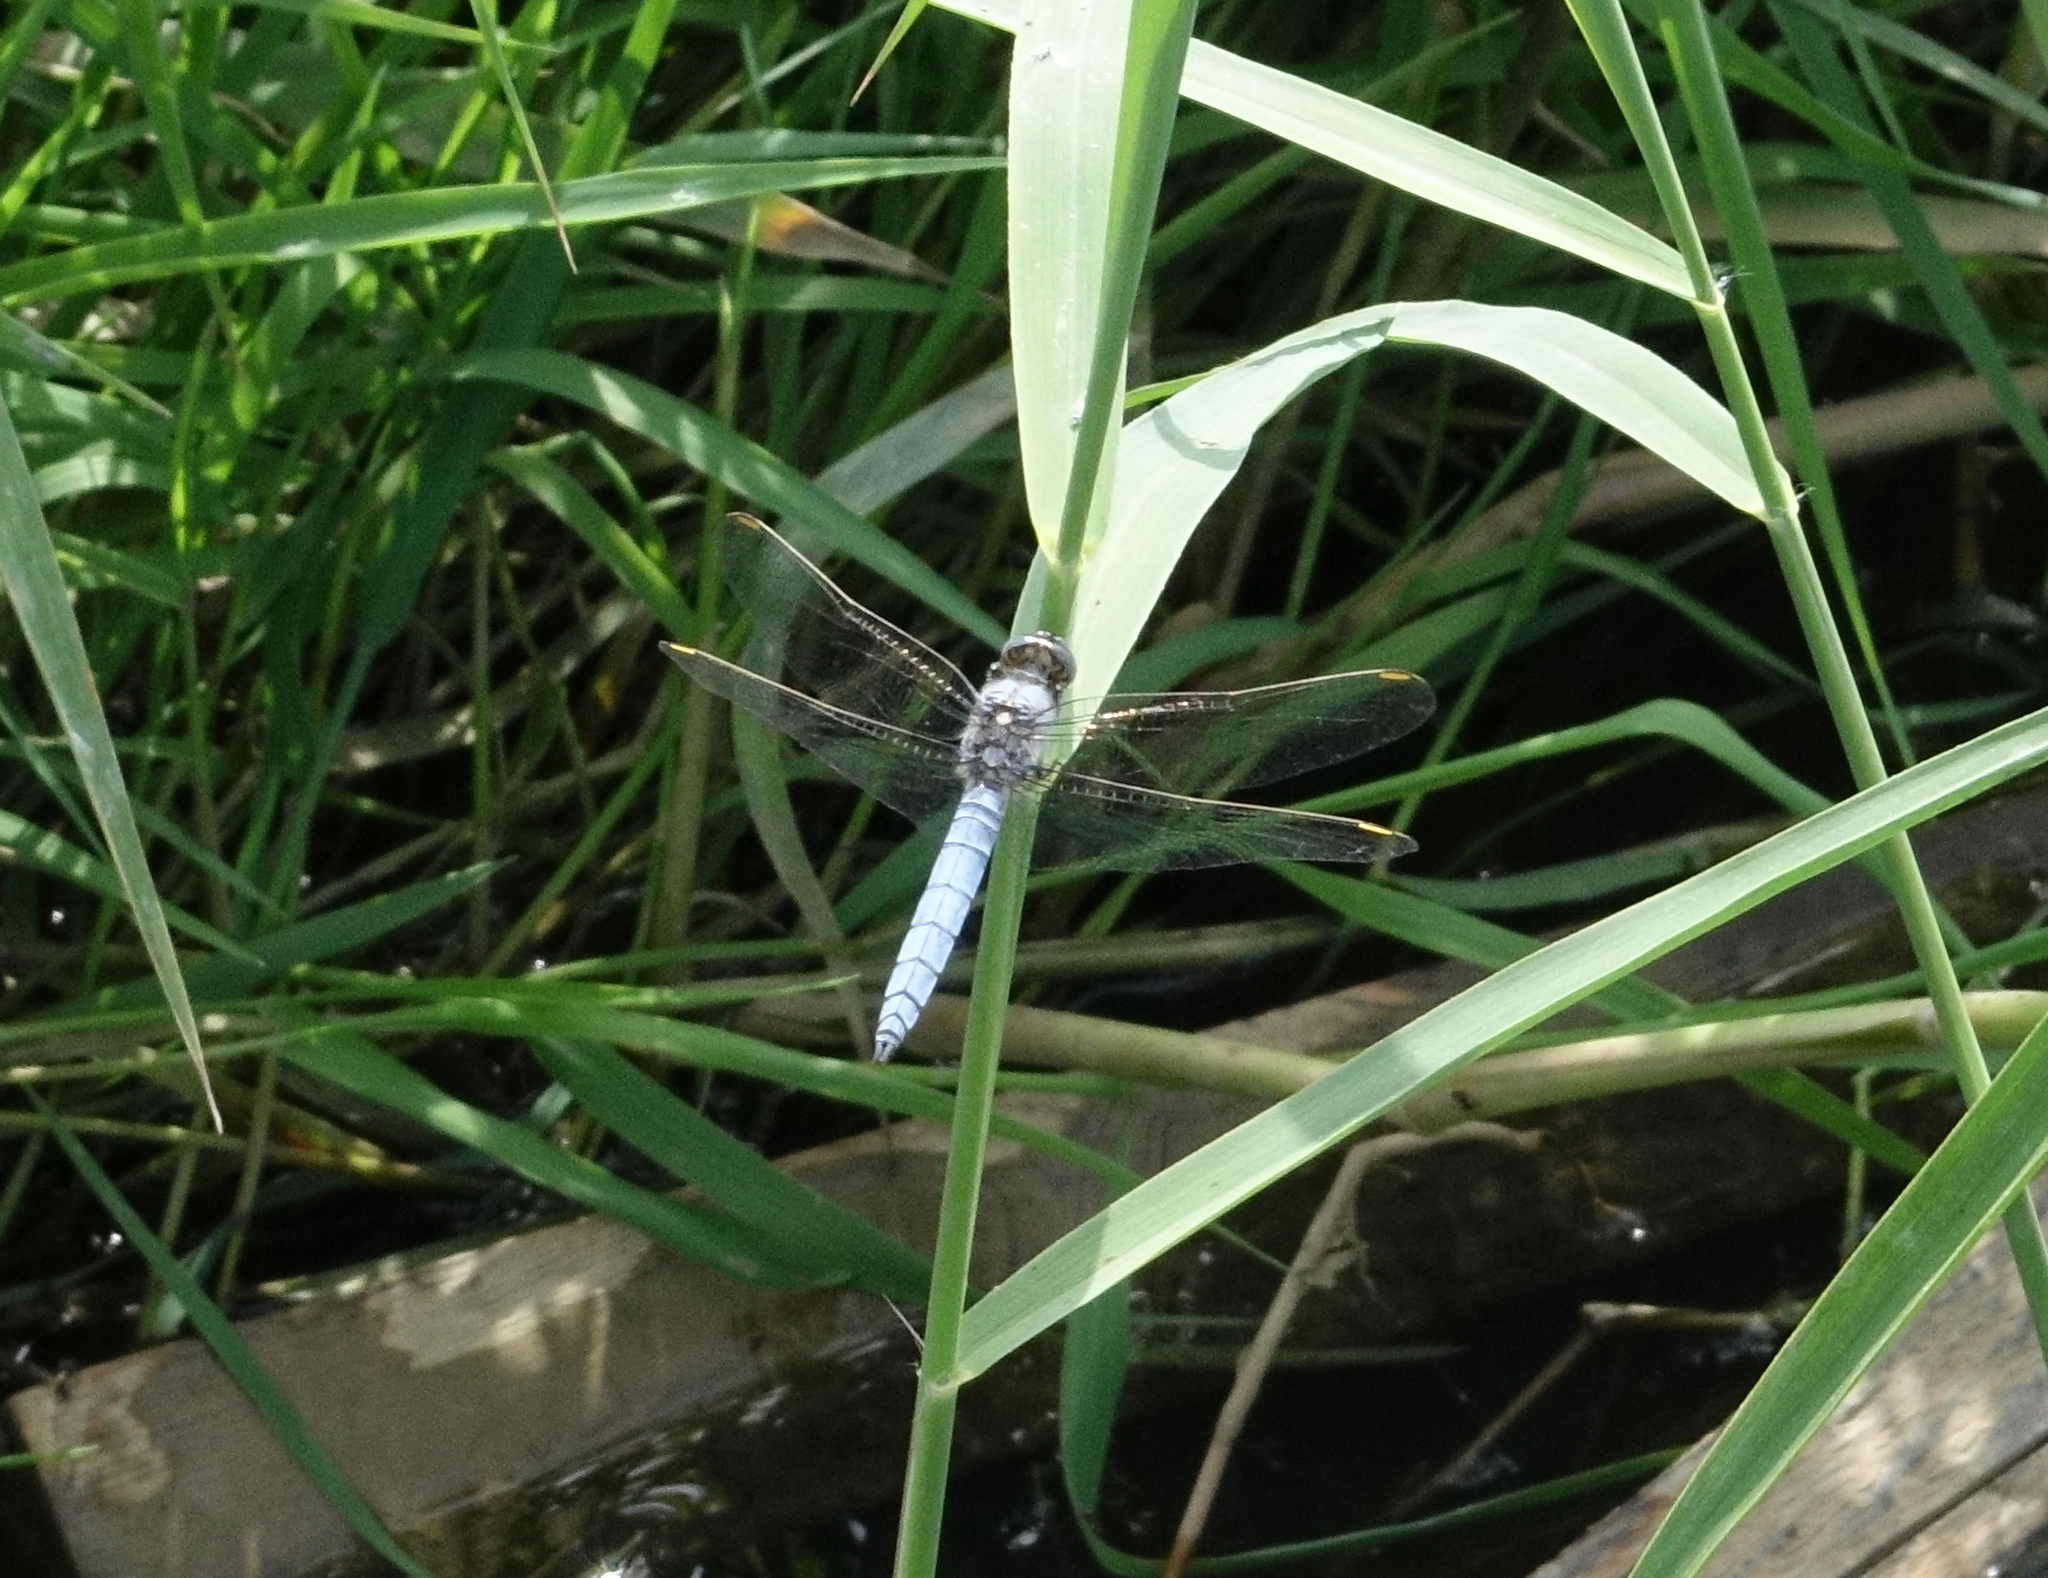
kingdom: Animalia
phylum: Arthropoda
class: Insecta
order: Odonata
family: Libellulidae
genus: Orthetrum
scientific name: Orthetrum brunneum
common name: Southern skimmer
